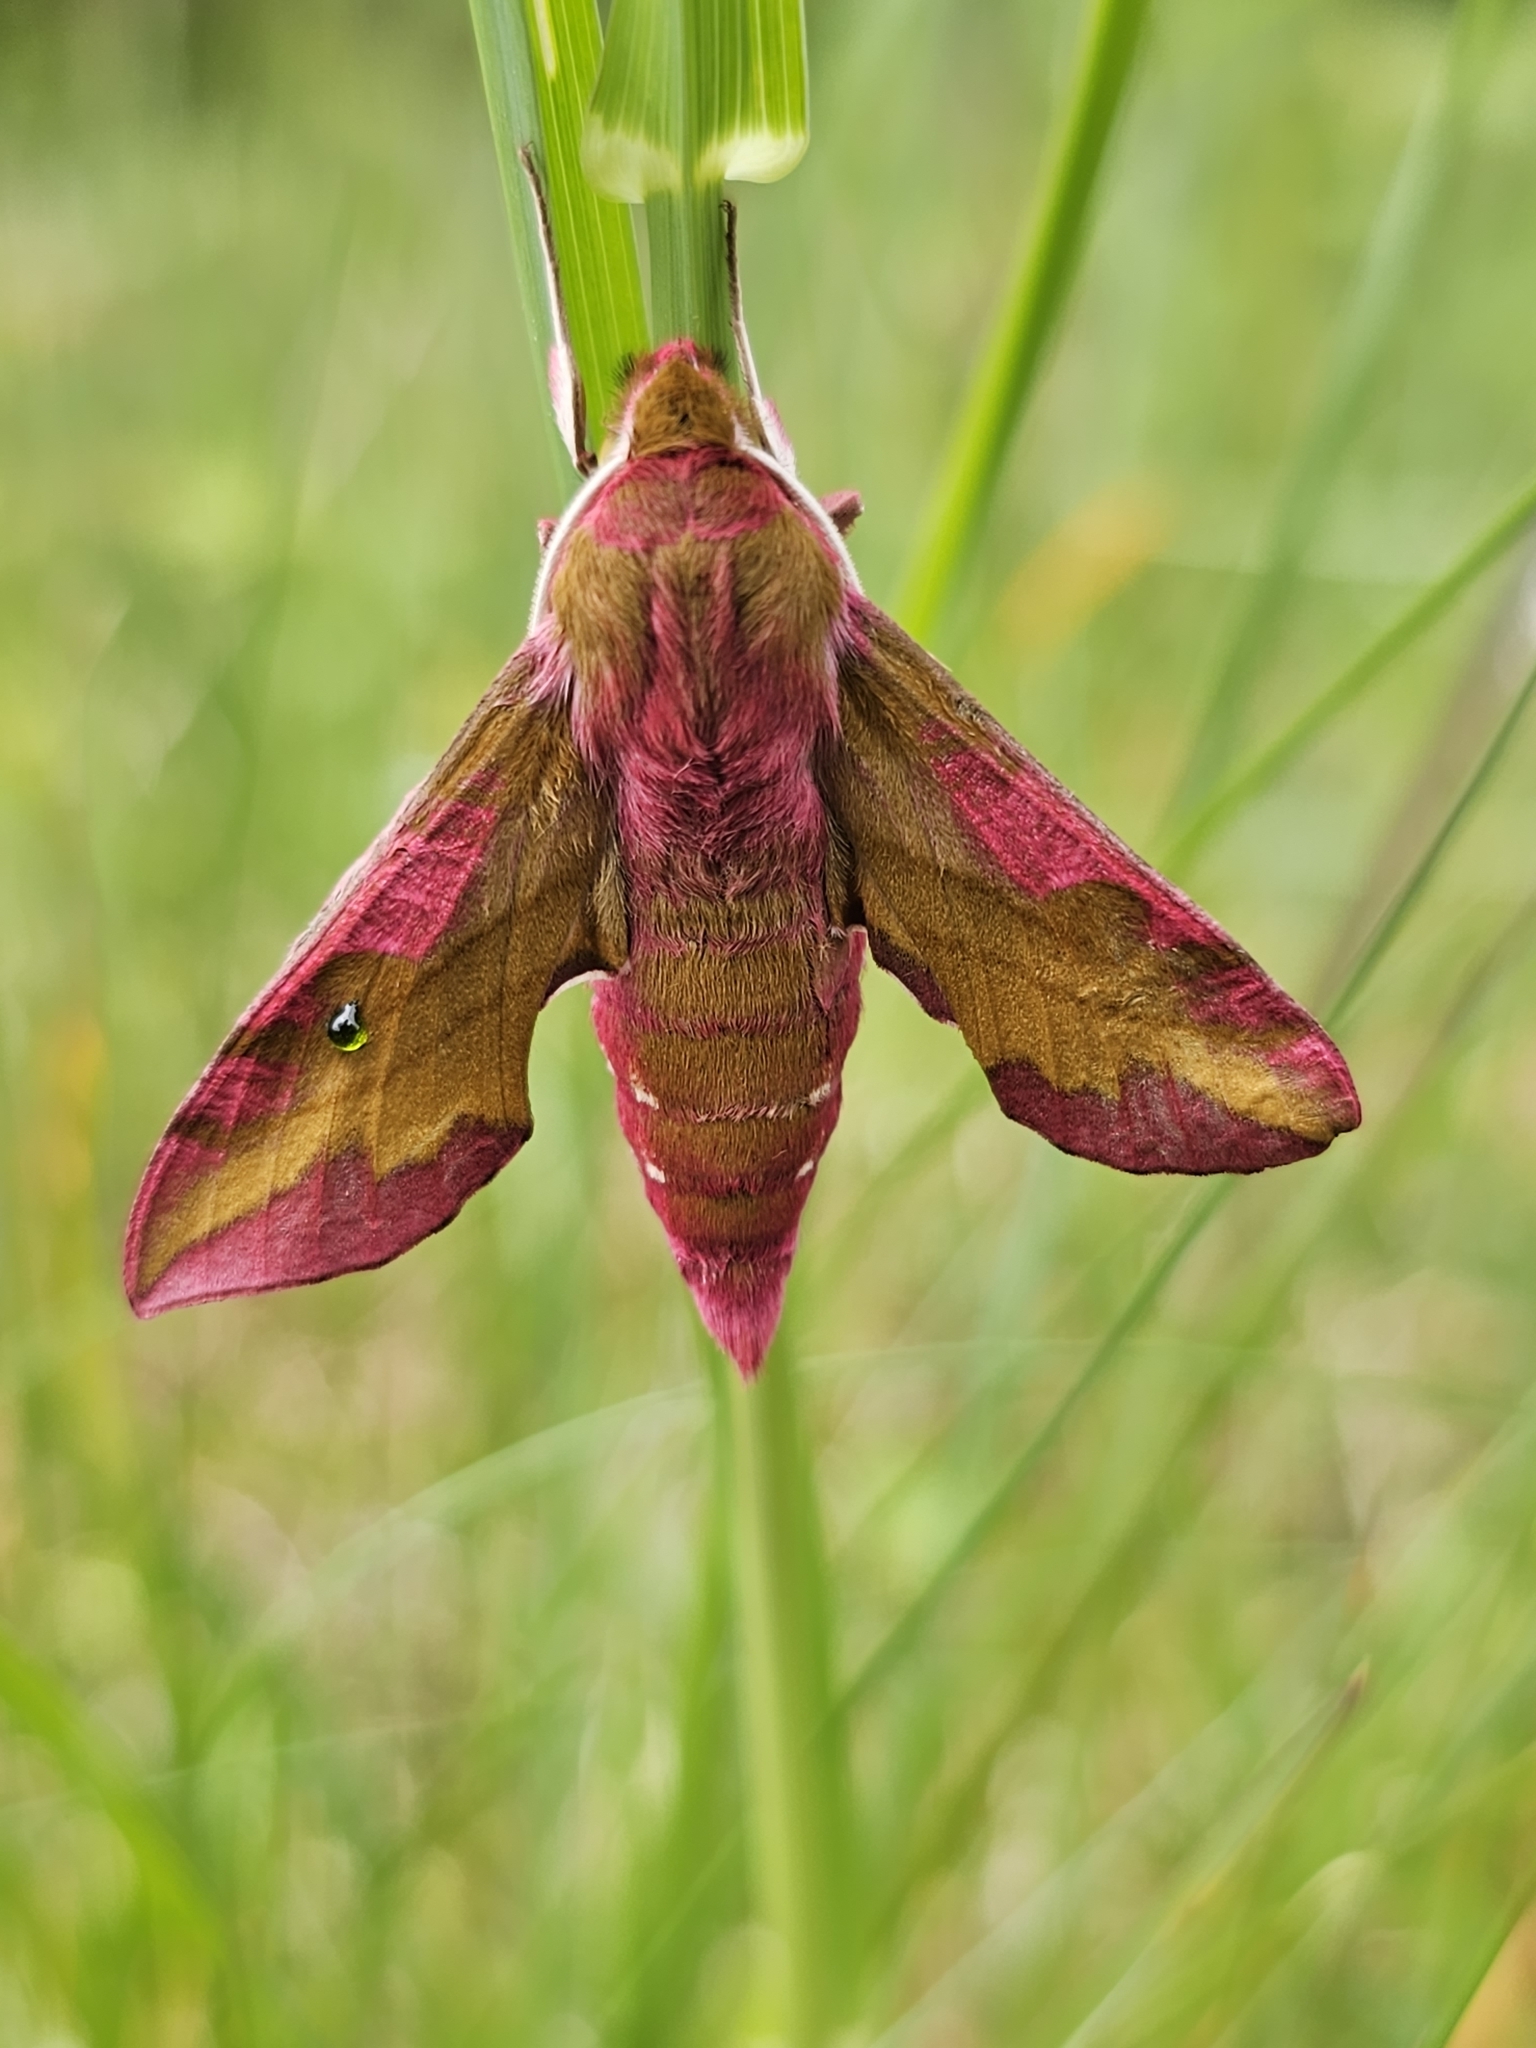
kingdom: Animalia
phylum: Arthropoda
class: Insecta
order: Lepidoptera
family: Sphingidae
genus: Deilephila
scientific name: Deilephila porcellus
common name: Small elephant hawk-moth
